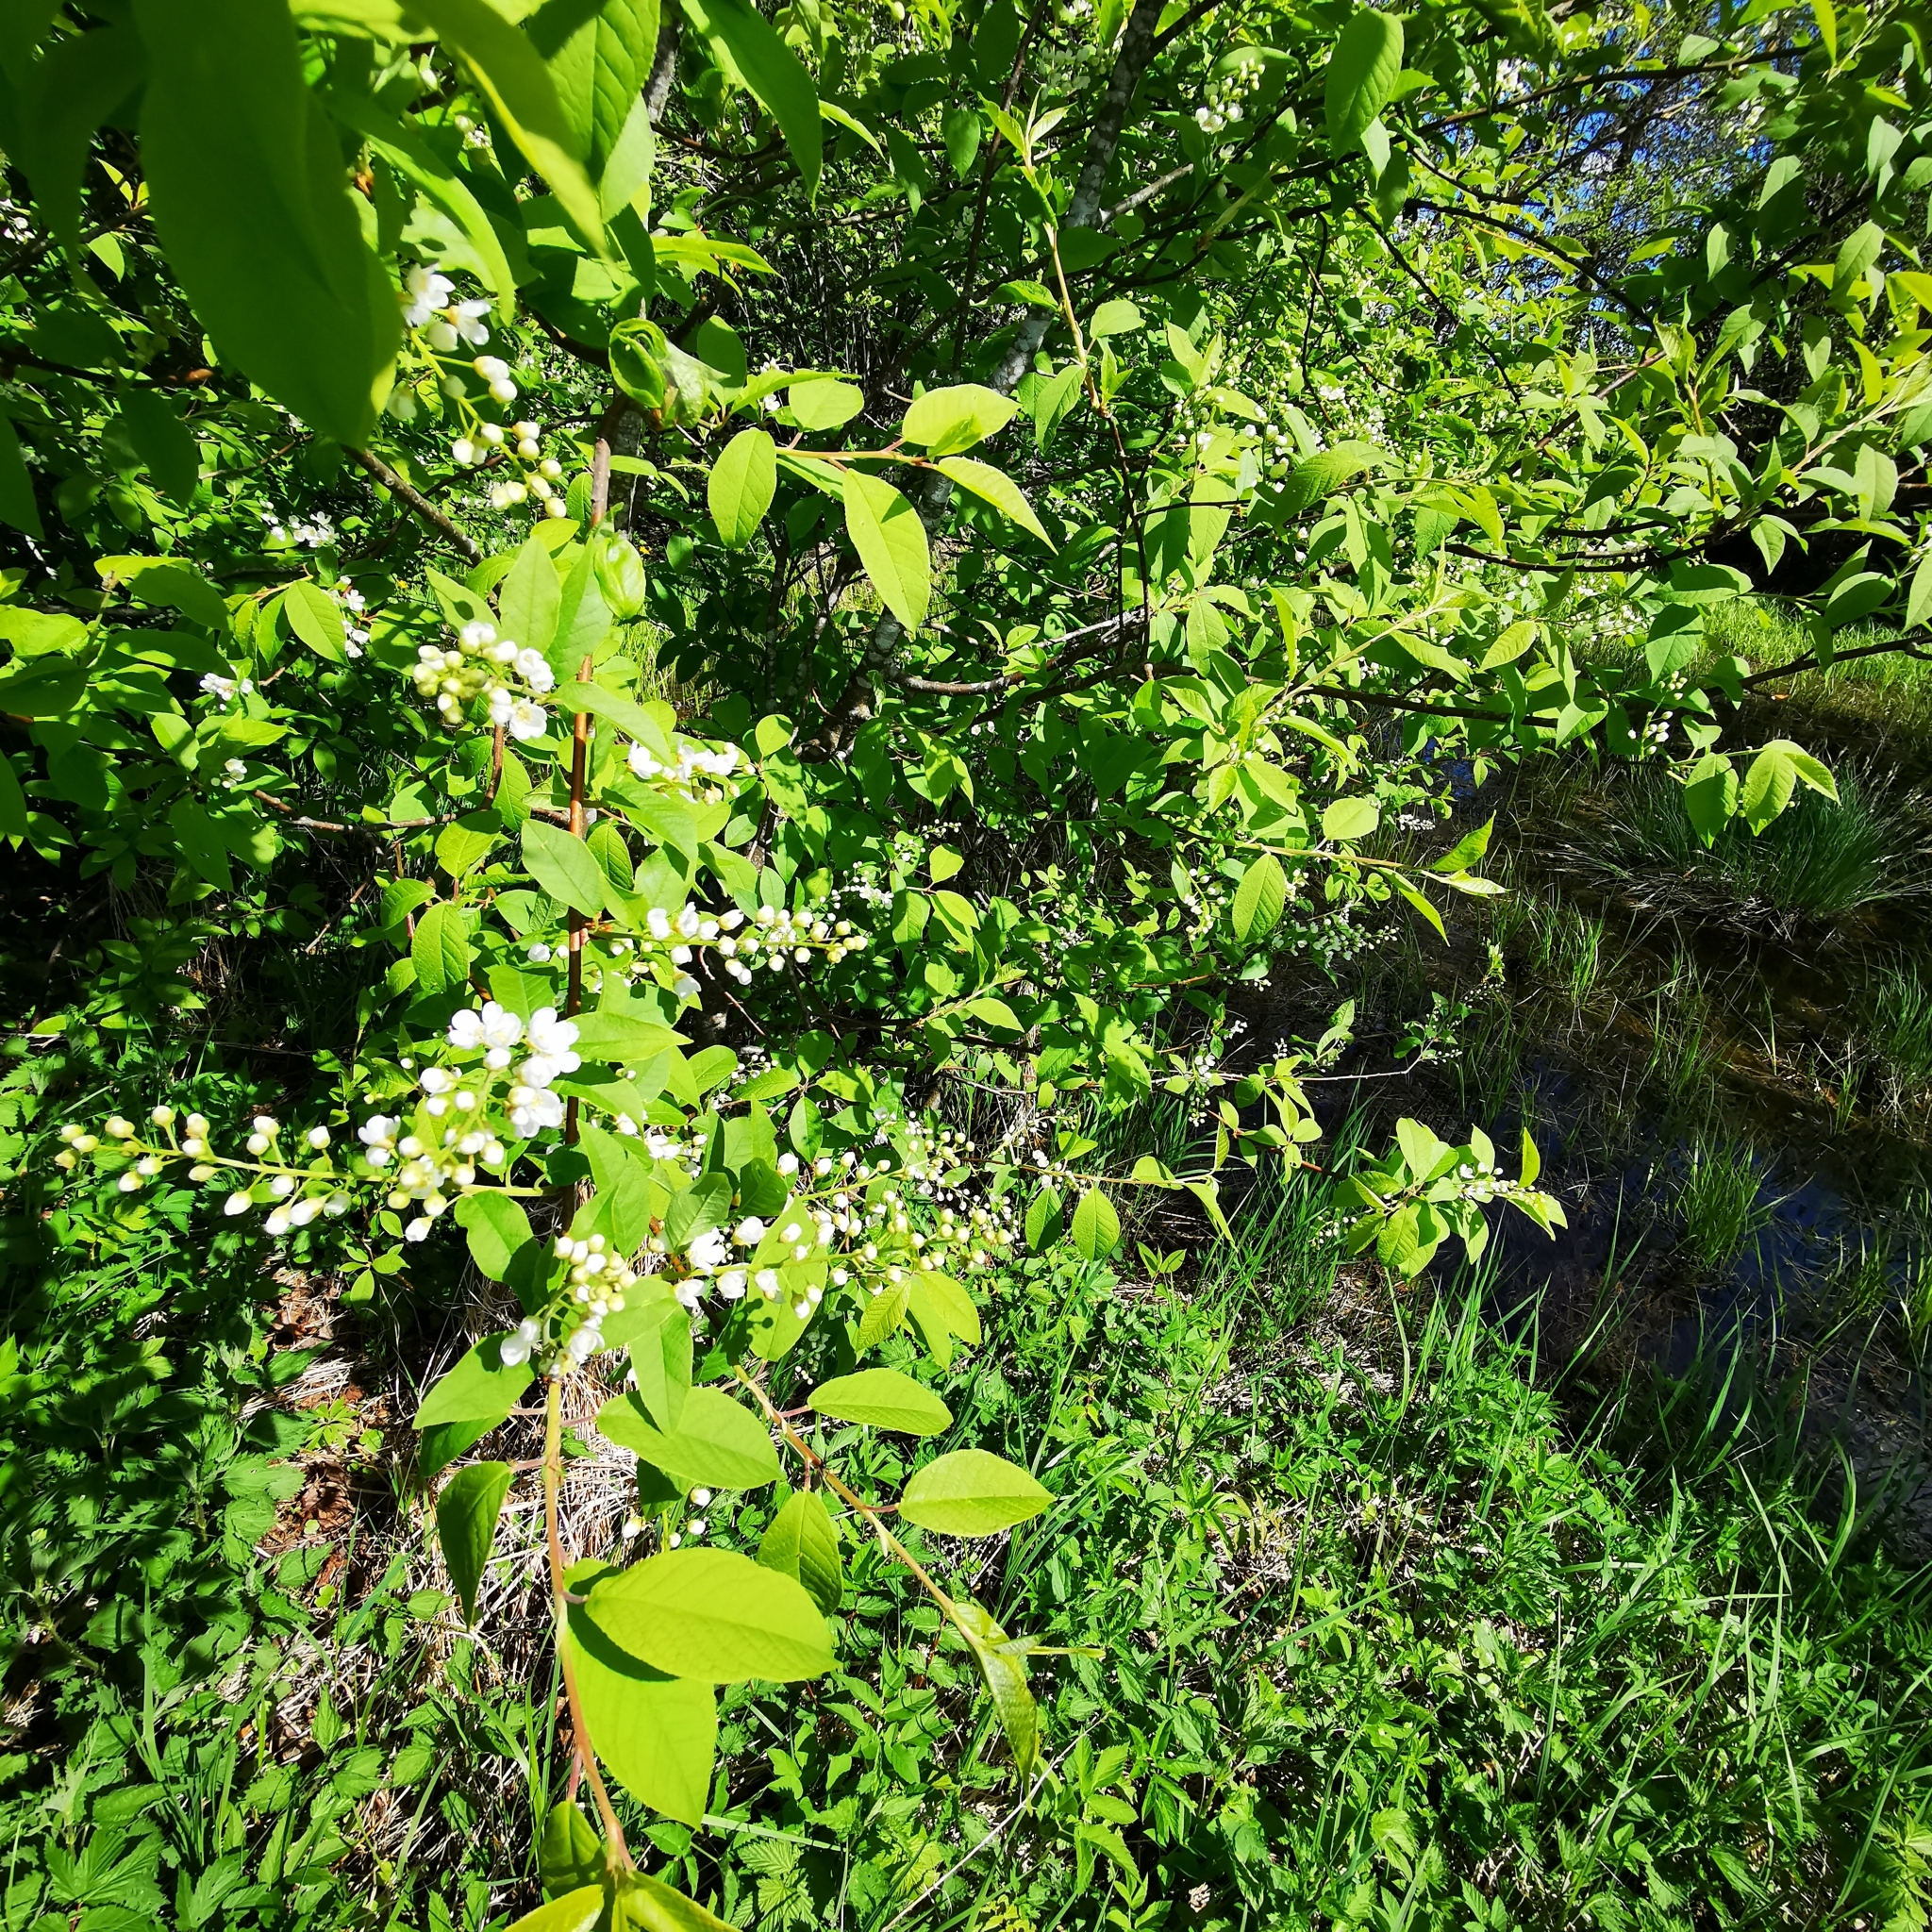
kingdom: Plantae
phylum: Tracheophyta
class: Magnoliopsida
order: Rosales
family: Rosaceae
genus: Prunus
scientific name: Prunus padus
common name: Bird cherry
